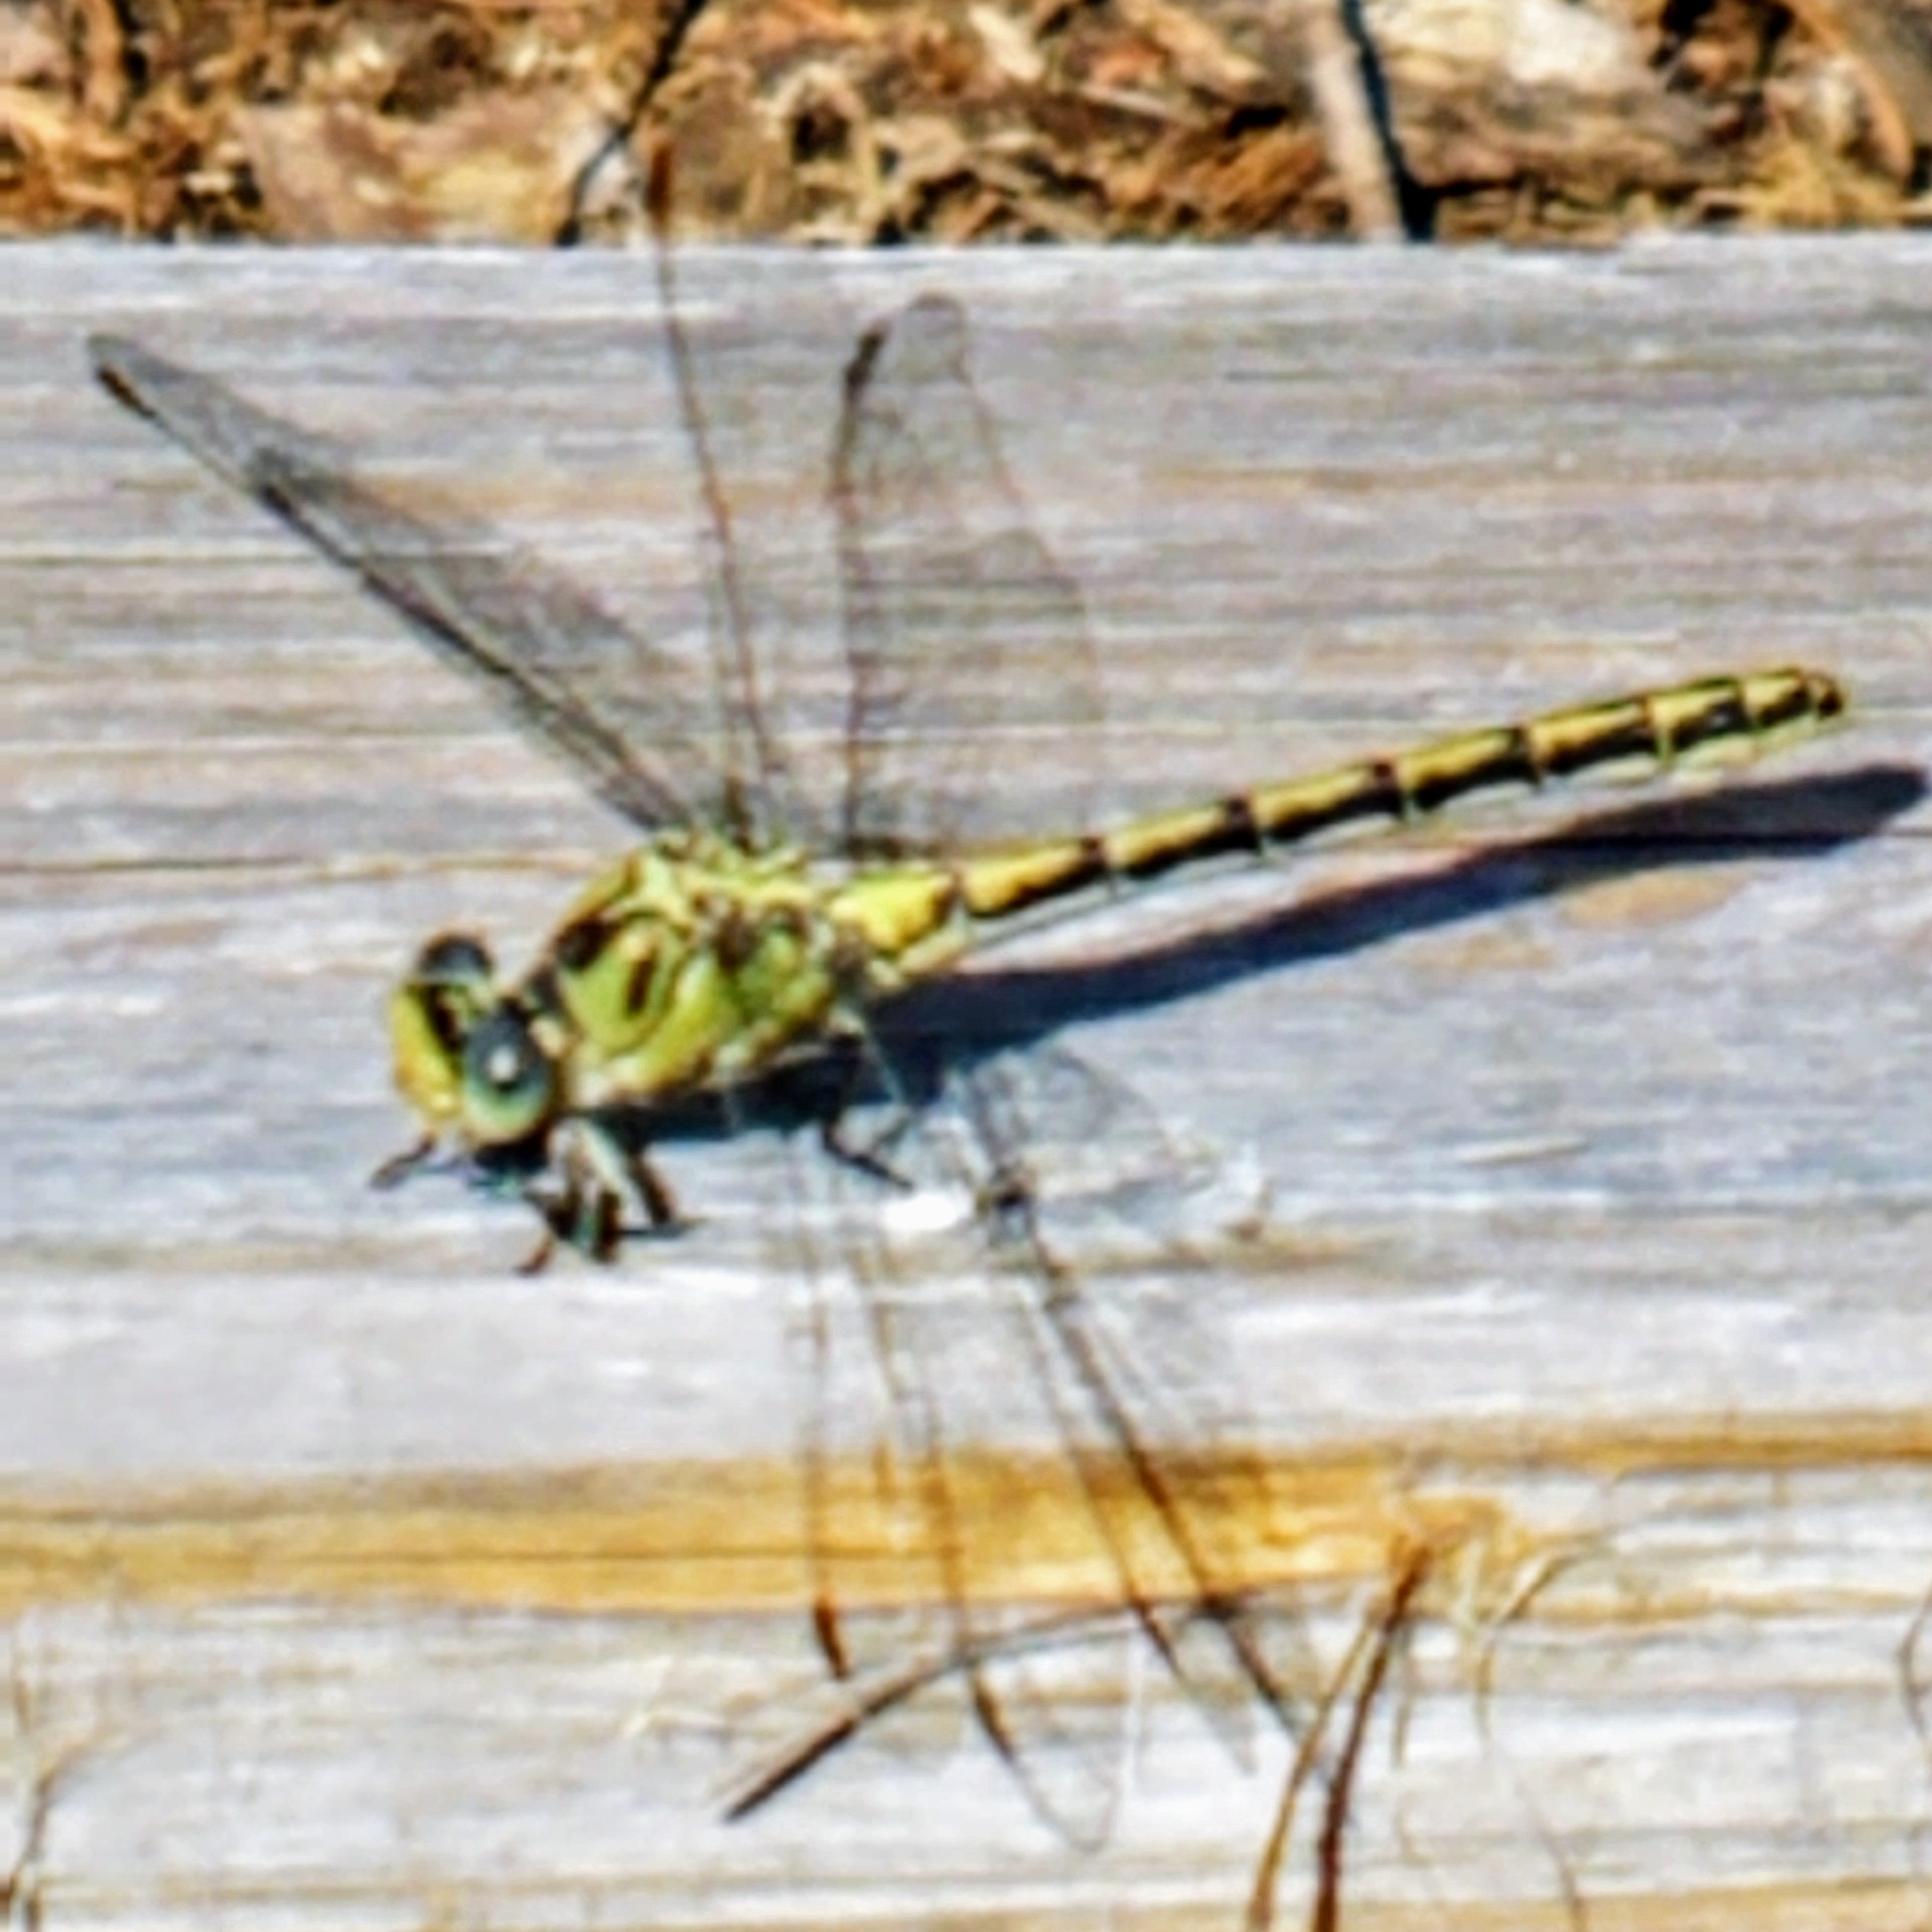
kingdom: Animalia
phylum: Arthropoda
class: Insecta
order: Odonata
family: Gomphidae
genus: Ophiogomphus
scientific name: Ophiogomphus severus
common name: Pale snaketail
